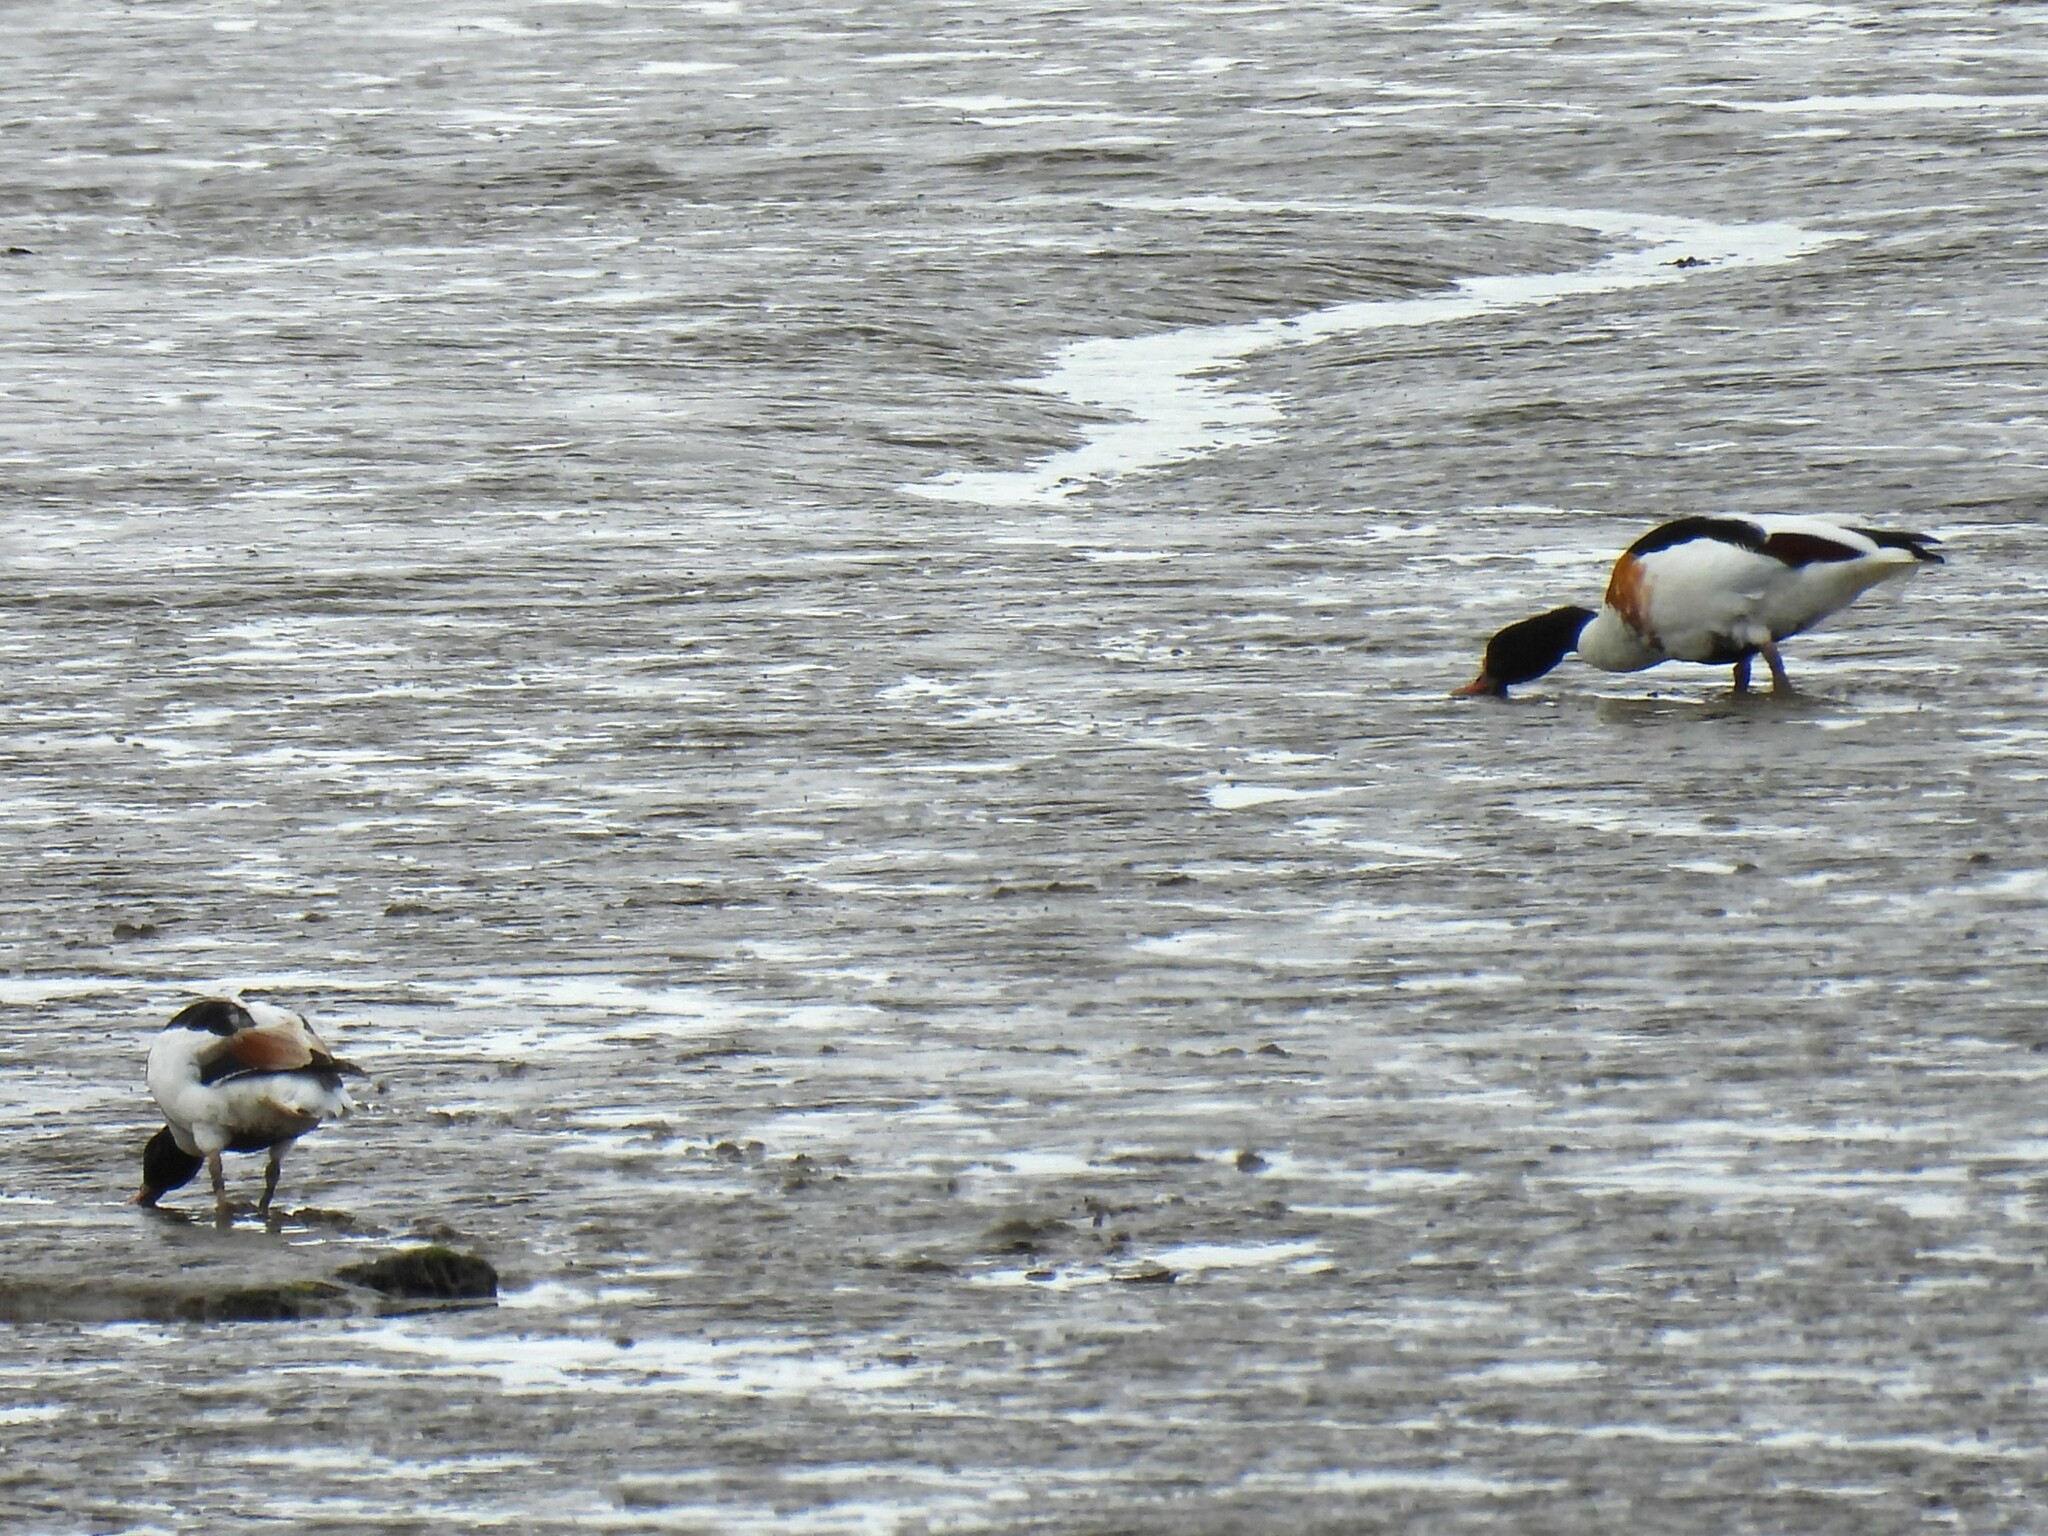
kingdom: Animalia
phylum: Chordata
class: Aves
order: Anseriformes
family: Anatidae
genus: Tadorna
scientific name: Tadorna tadorna
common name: Common shelduck
